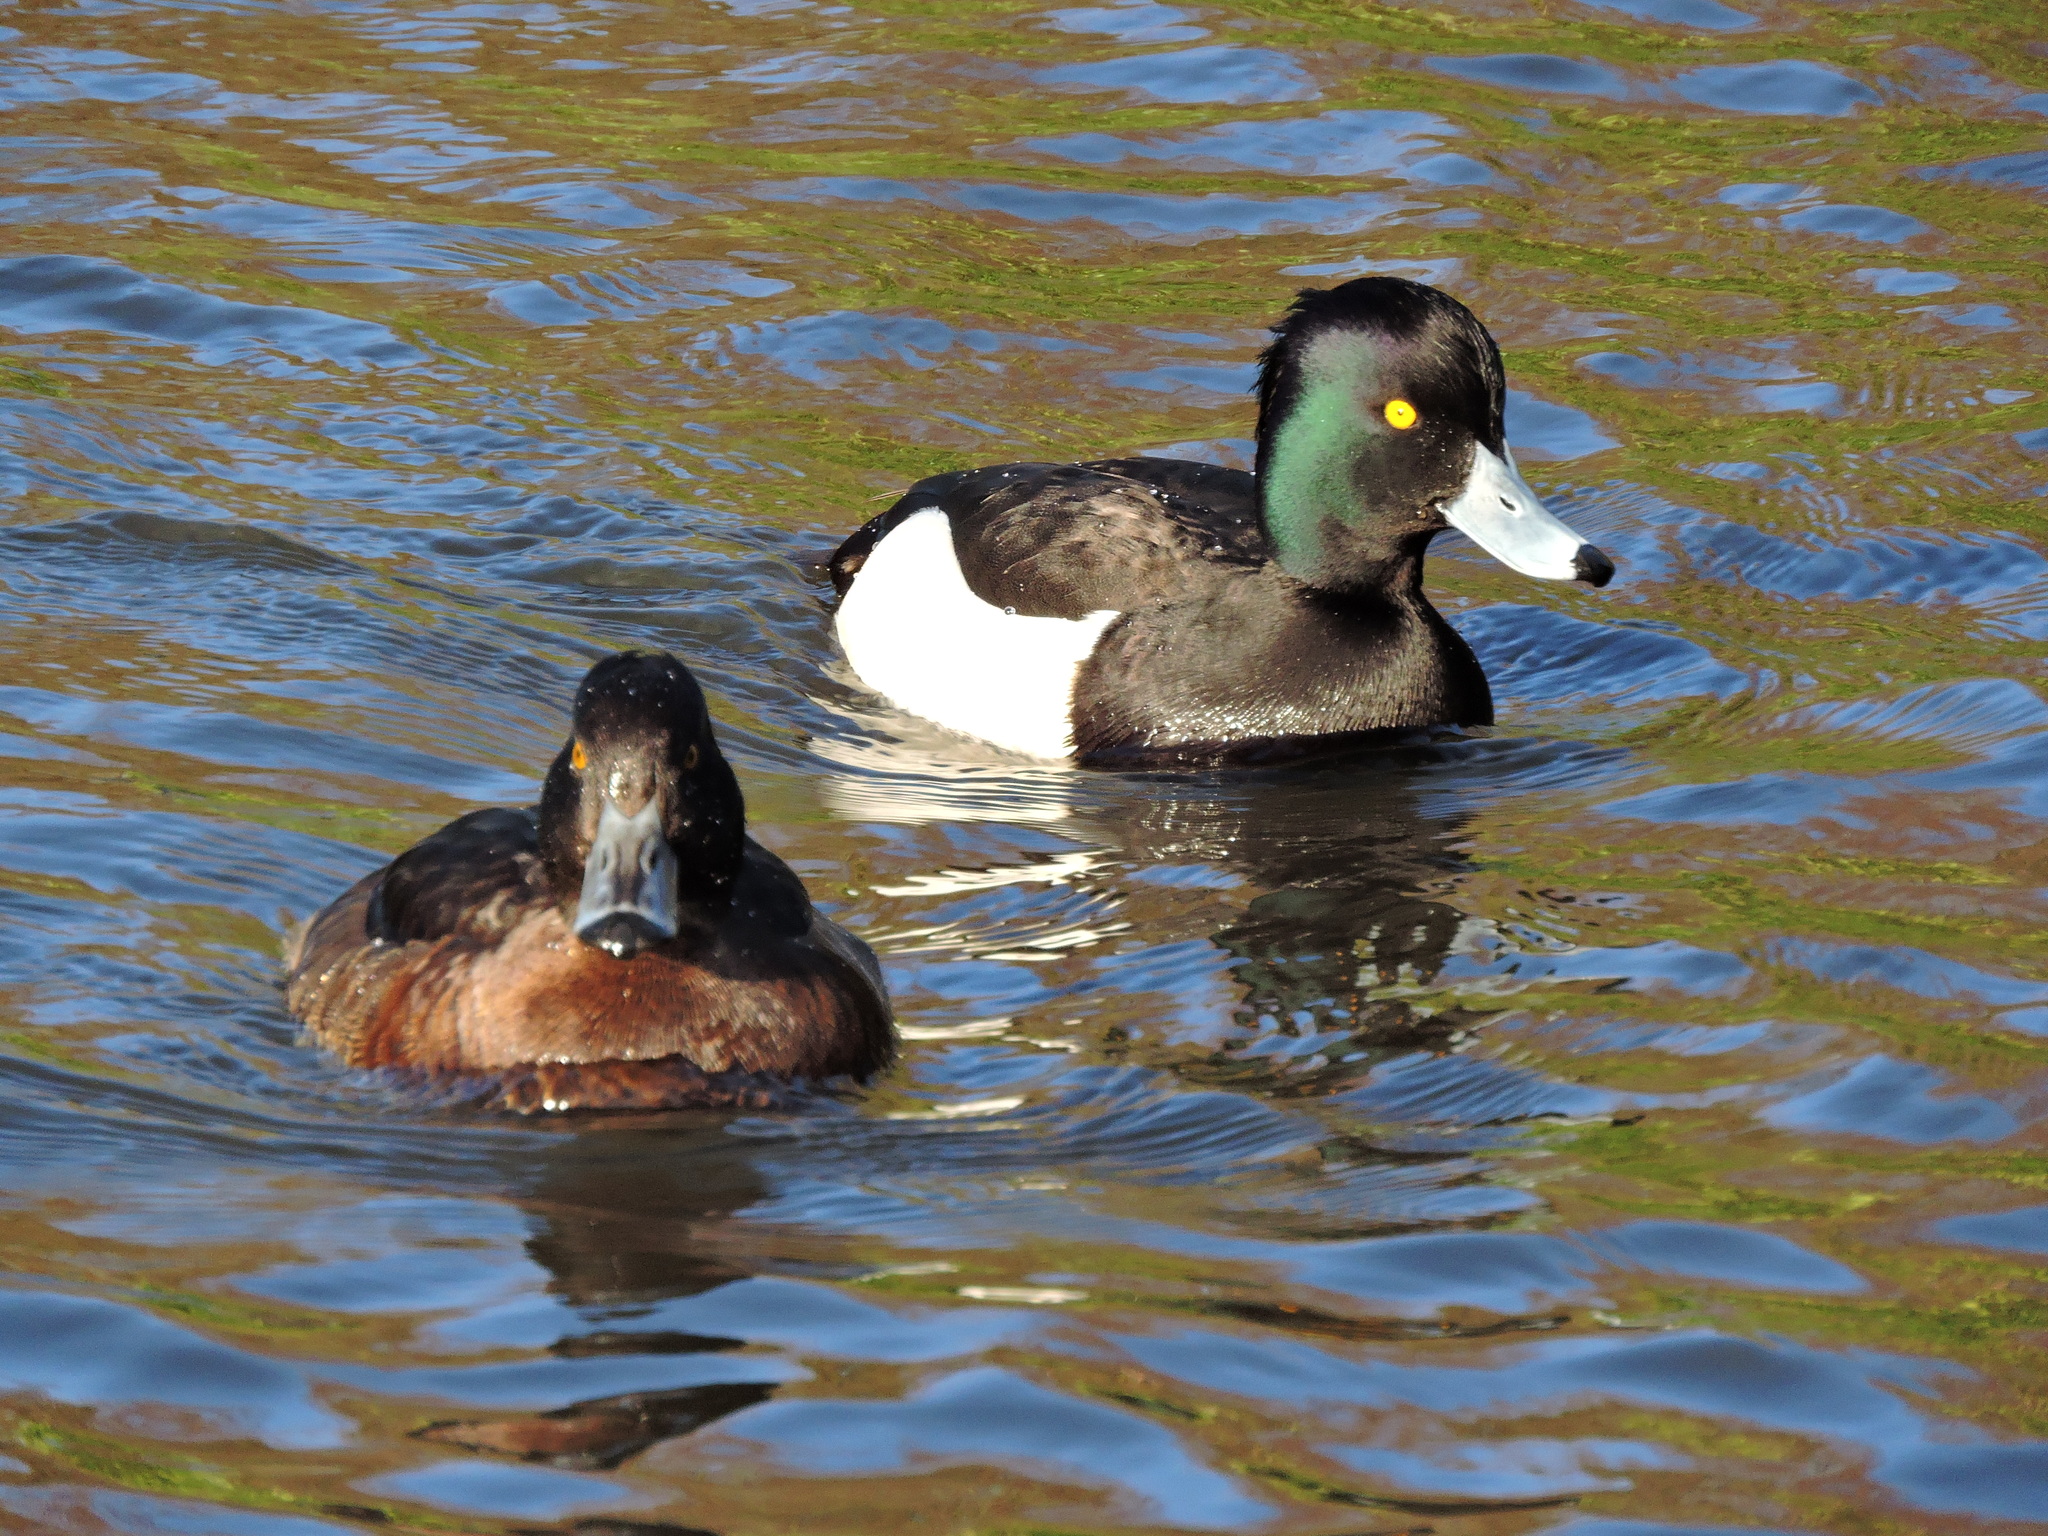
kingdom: Animalia
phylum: Chordata
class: Aves
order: Anseriformes
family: Anatidae
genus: Aythya
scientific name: Aythya fuligula
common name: Tufted duck
